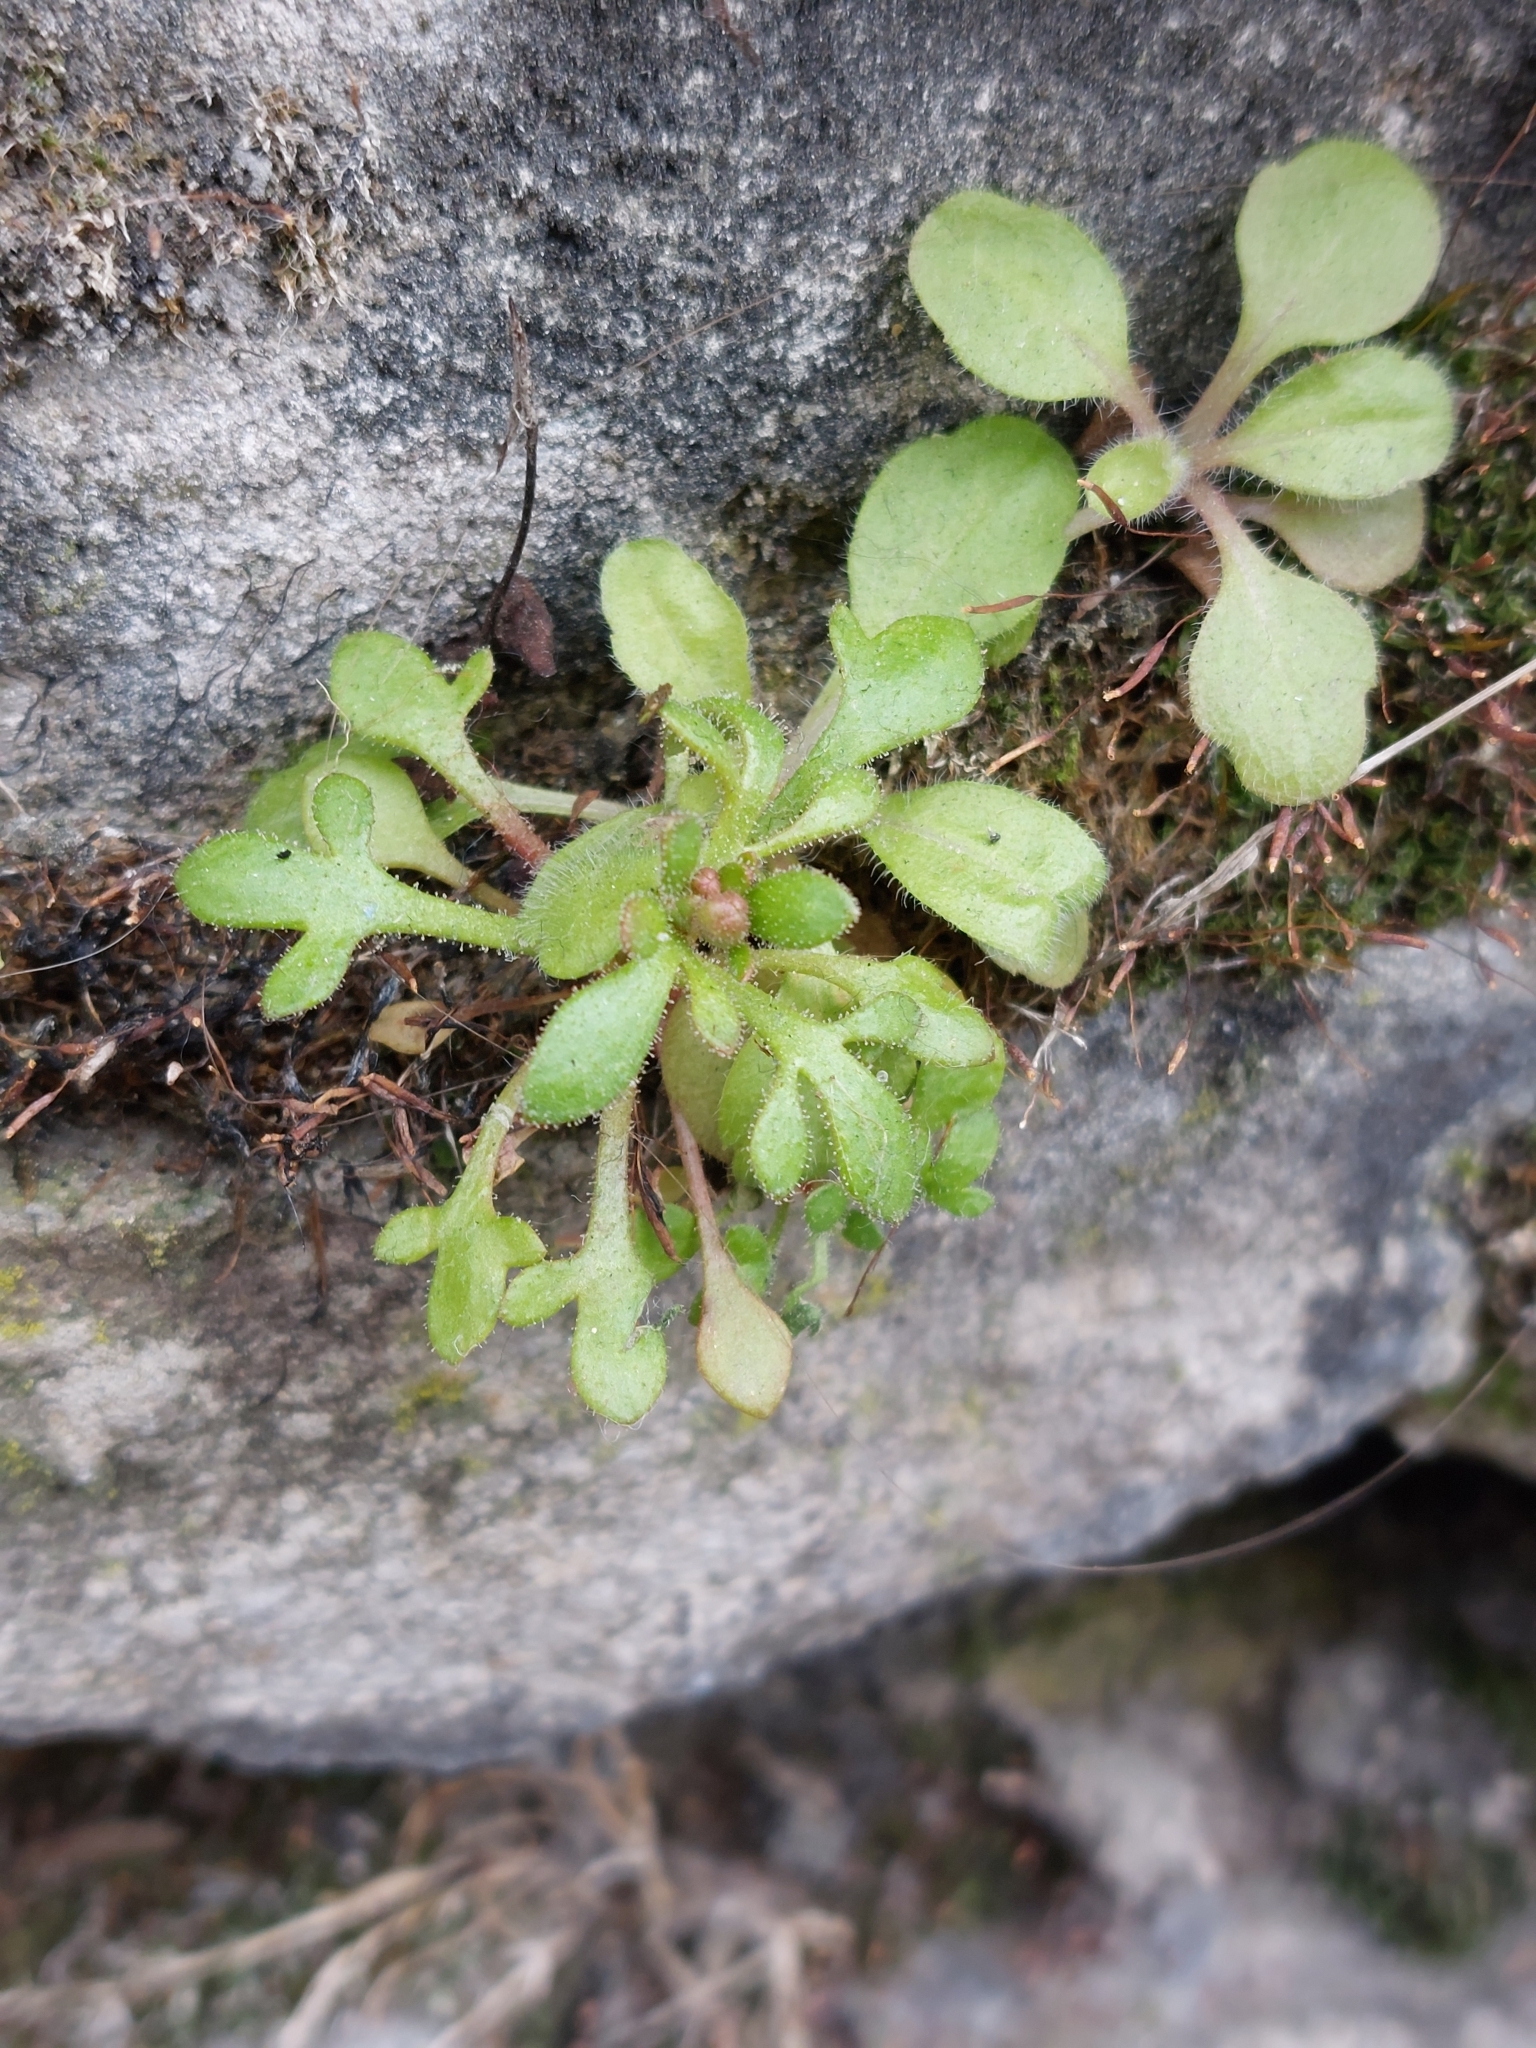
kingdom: Plantae
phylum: Tracheophyta
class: Magnoliopsida
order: Saxifragales
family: Saxifragaceae
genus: Saxifraga
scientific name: Saxifraga tridactylites
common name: Rue-leaved saxifrage
